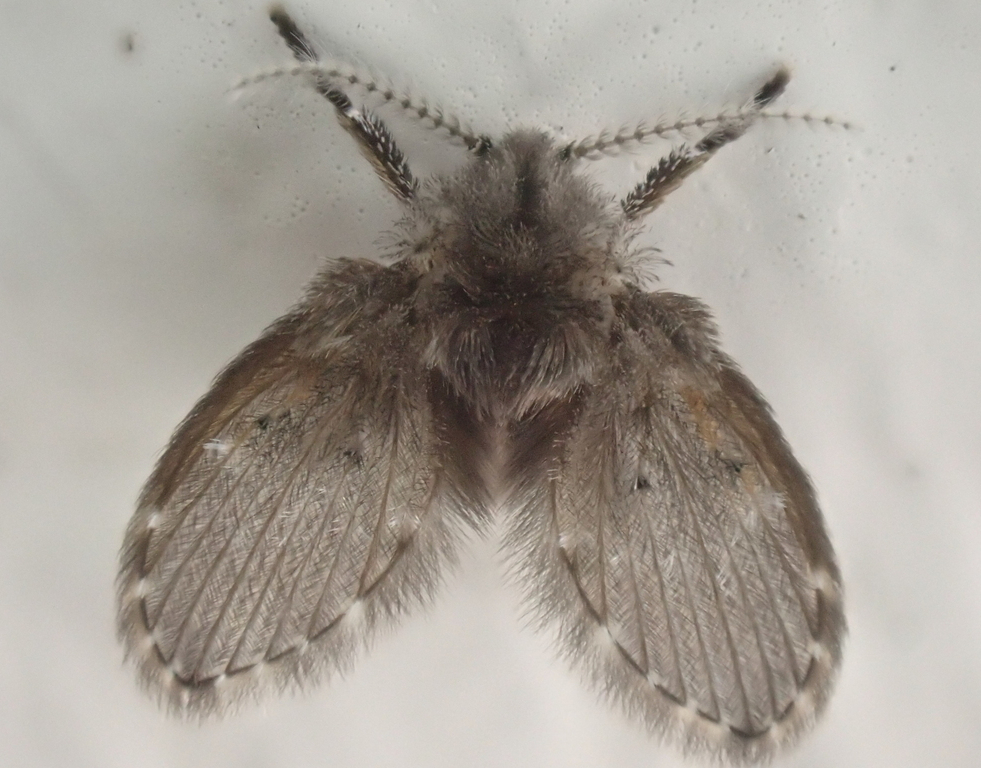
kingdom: Animalia
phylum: Arthropoda
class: Insecta
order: Diptera
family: Psychodidae
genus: Clogmia
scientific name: Clogmia albipunctatus
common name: White-spotted moth fly
